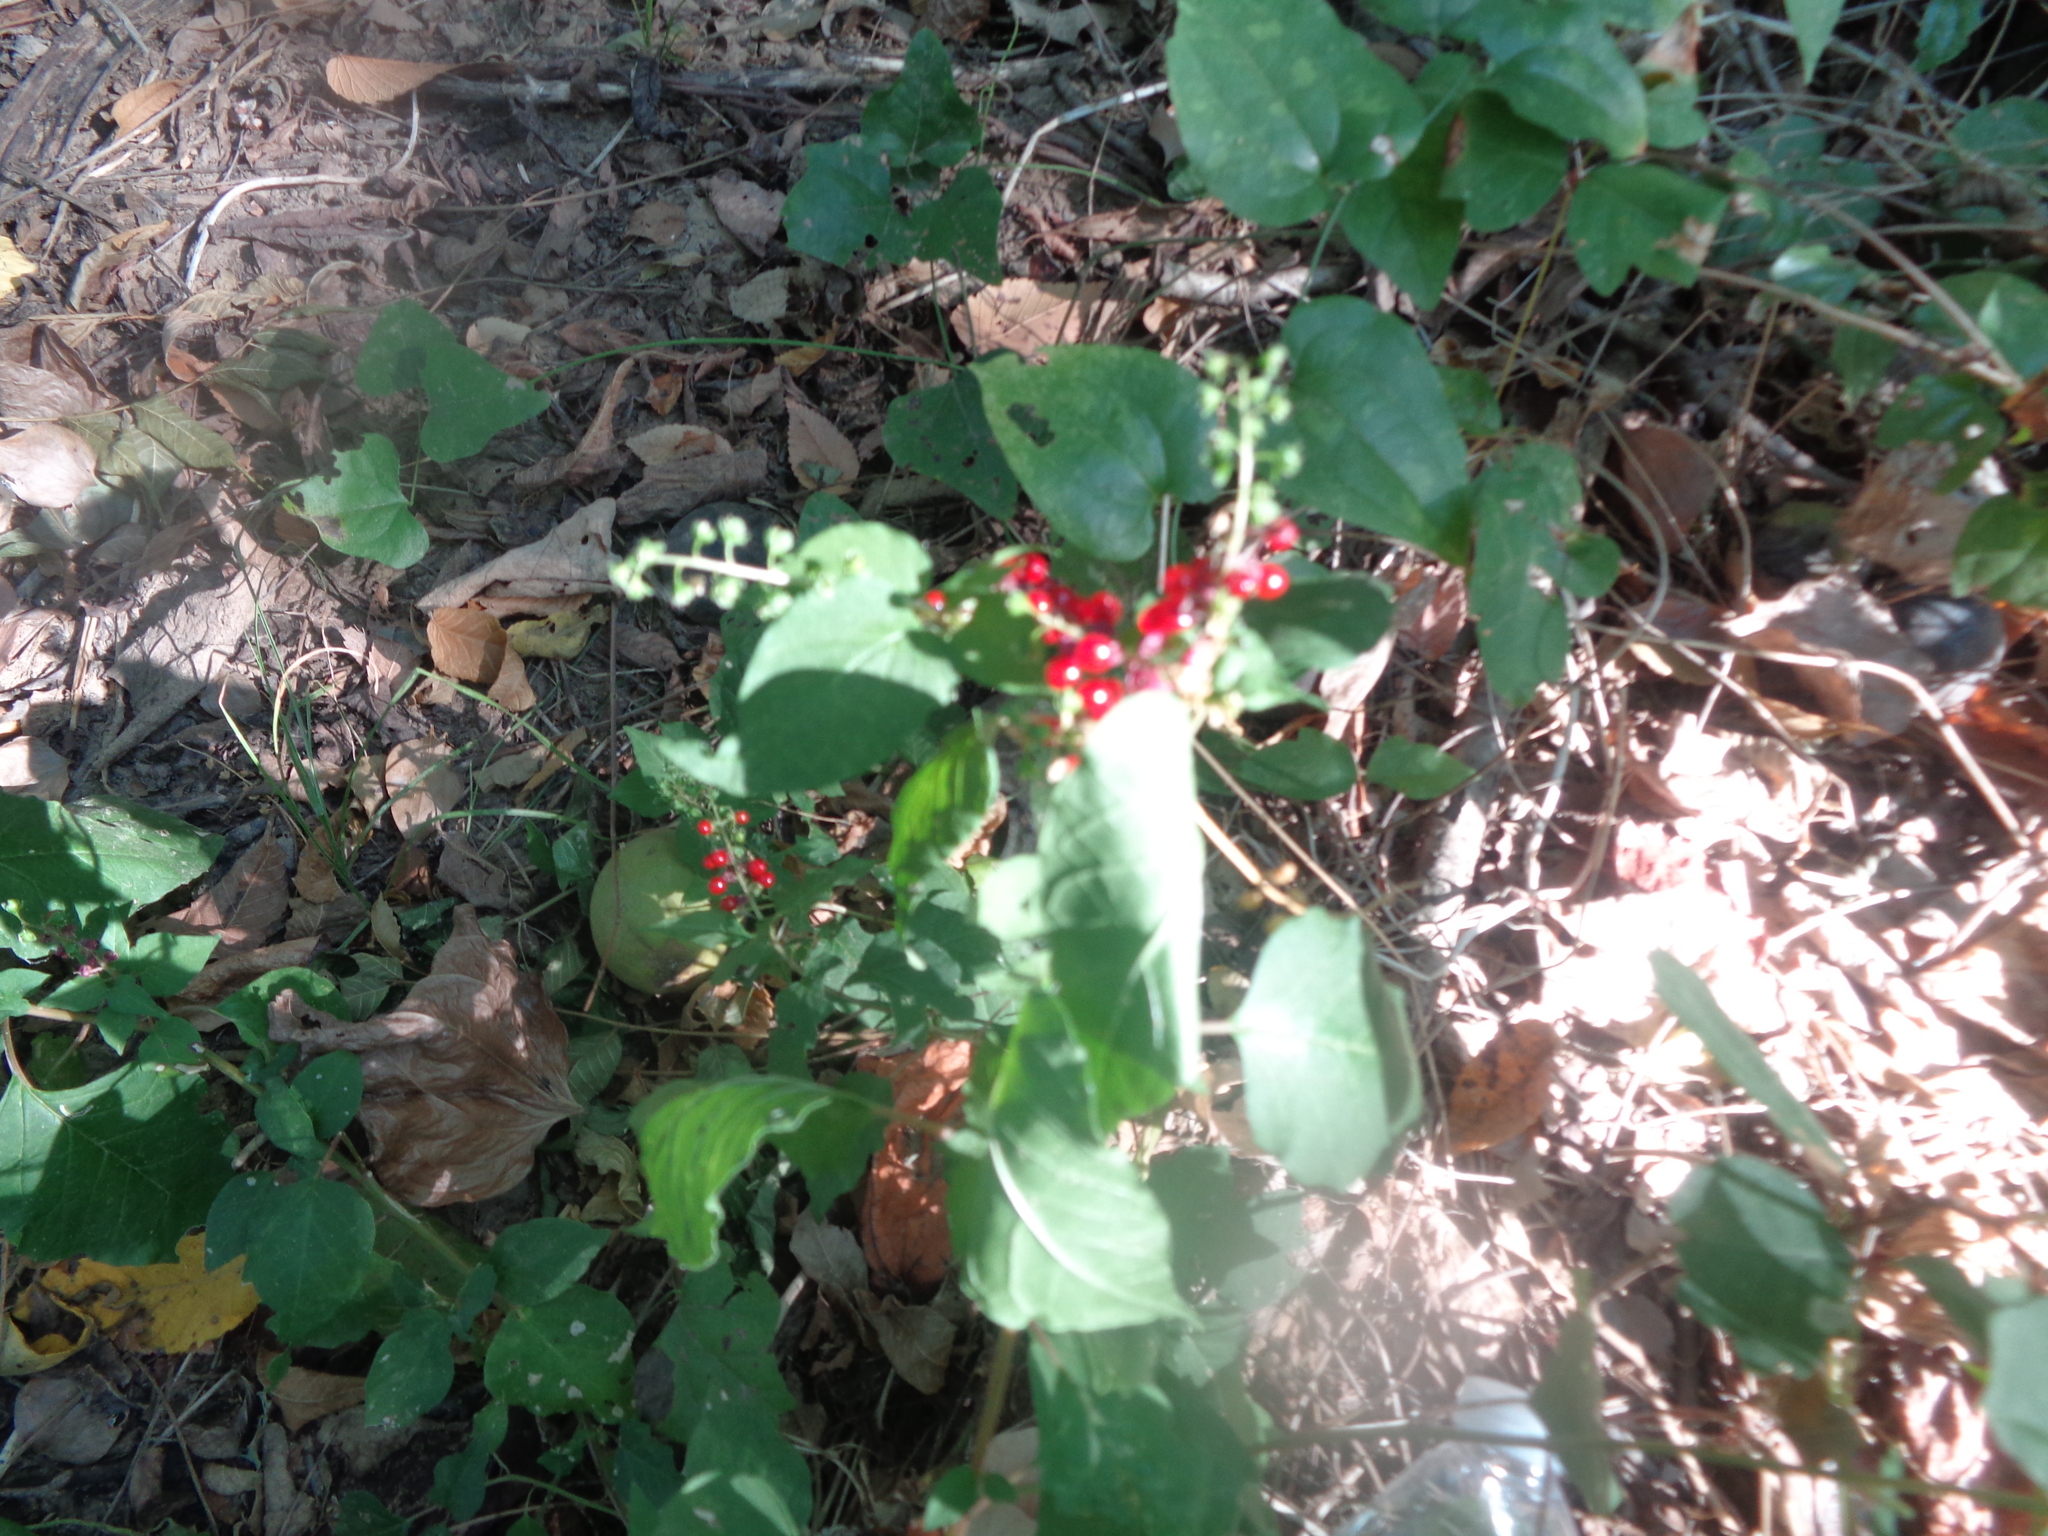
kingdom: Plantae
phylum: Tracheophyta
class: Magnoliopsida
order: Caryophyllales
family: Phytolaccaceae
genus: Rivina
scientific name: Rivina humilis
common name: Rougeplant
